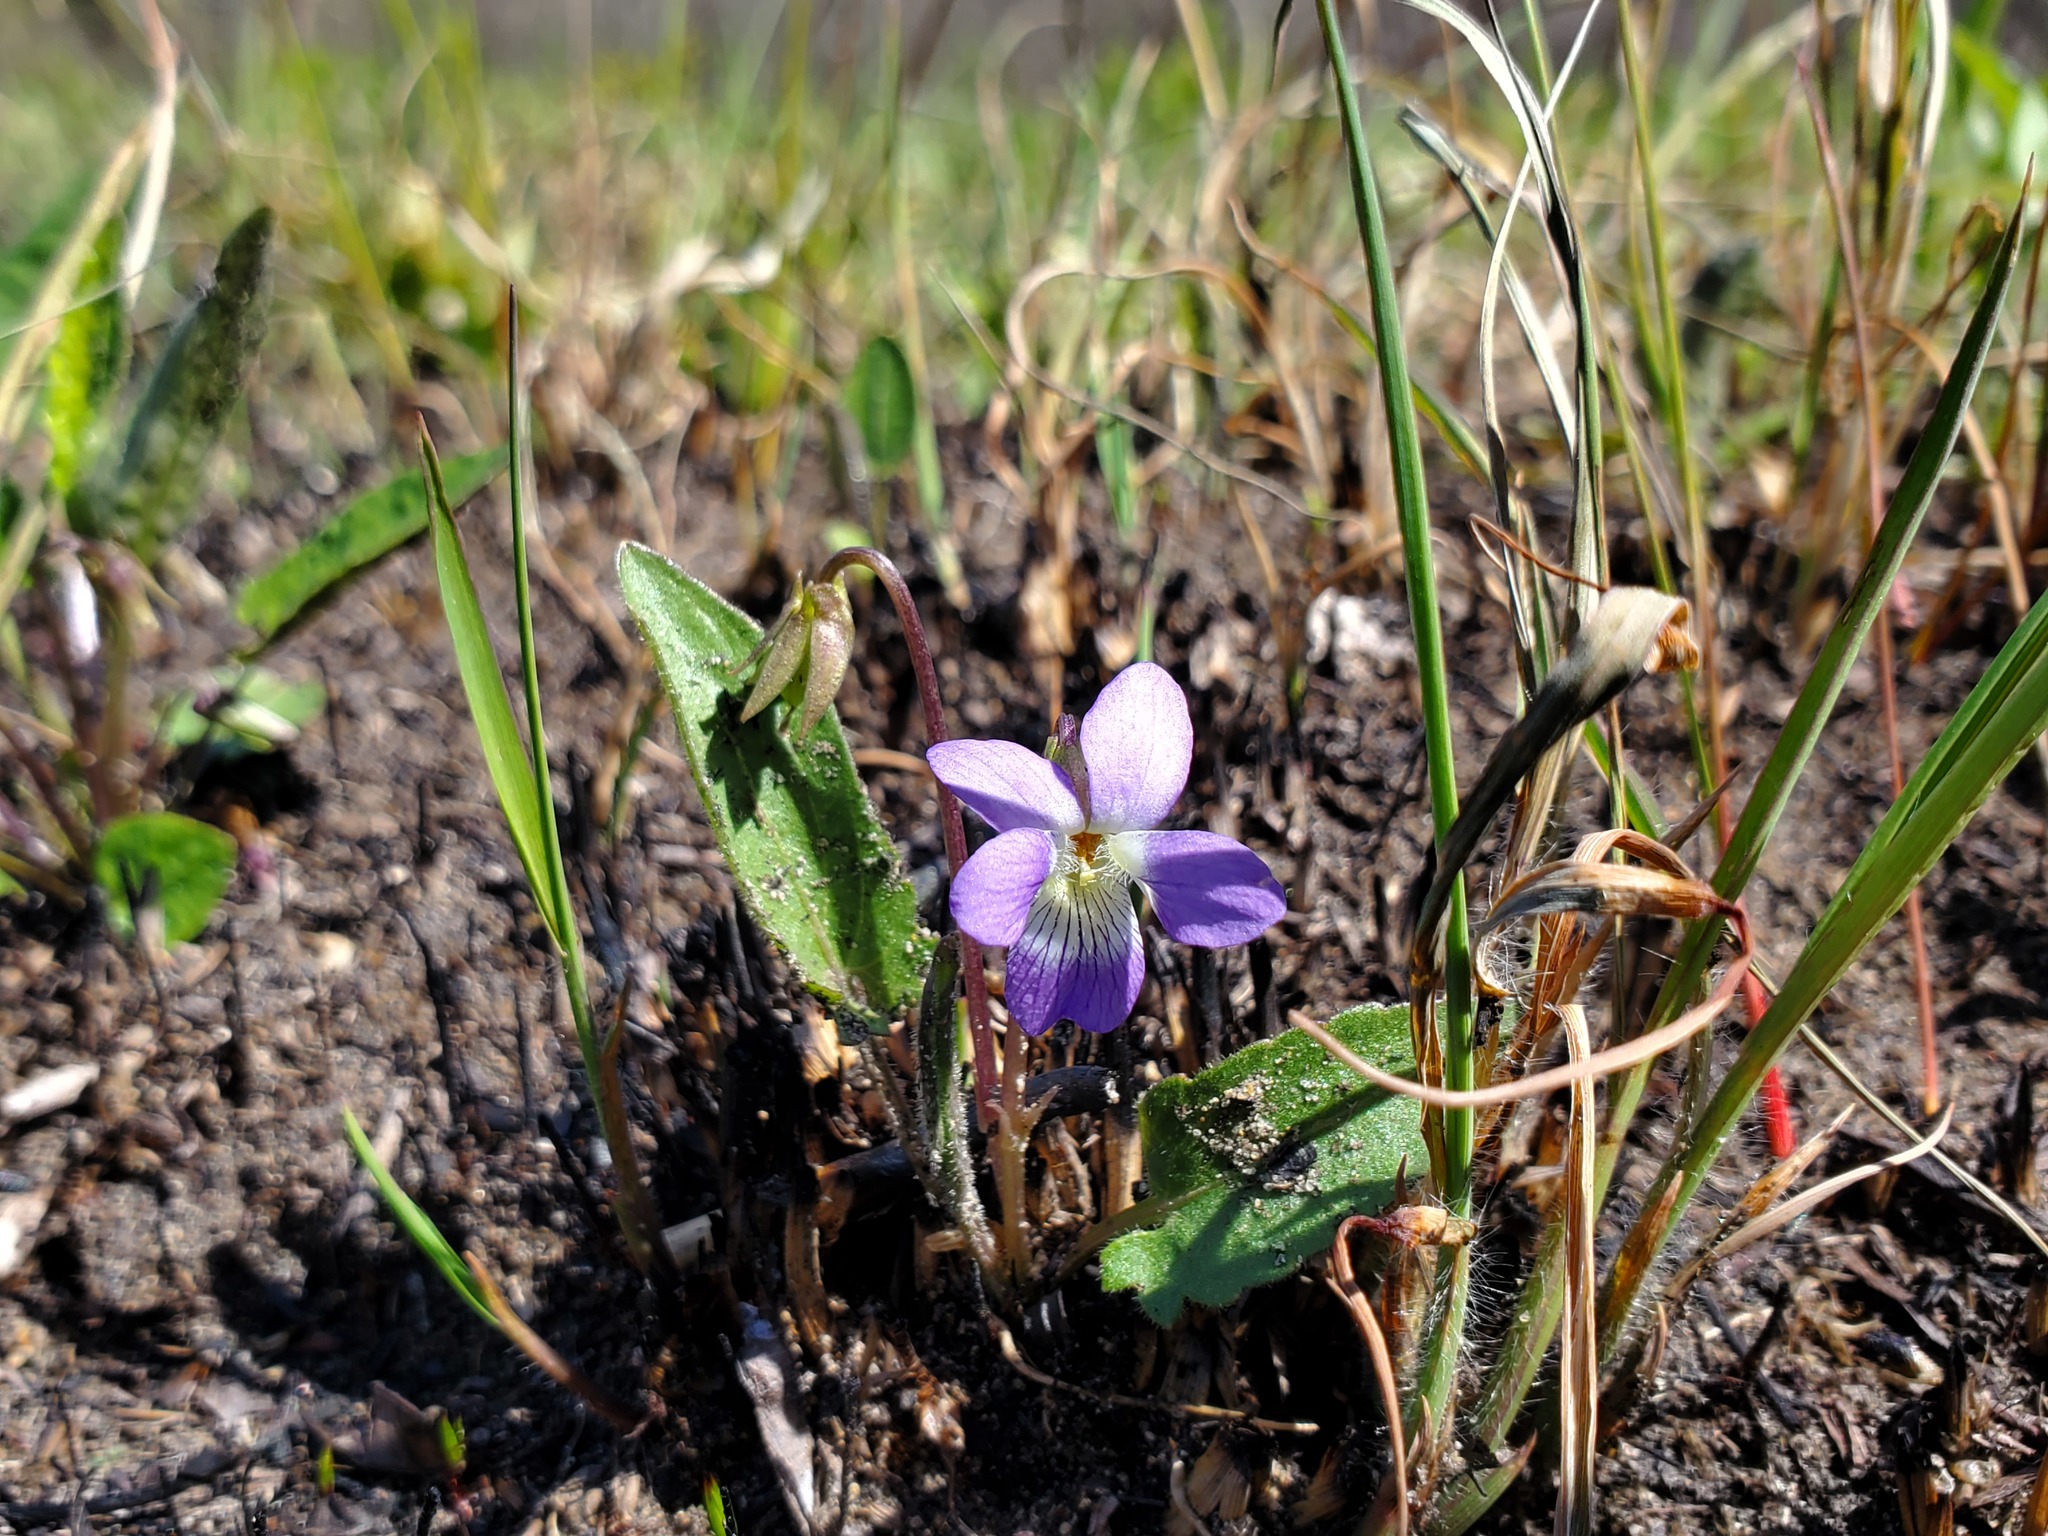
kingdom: Plantae
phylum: Tracheophyta
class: Magnoliopsida
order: Malpighiales
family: Violaceae
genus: Viola
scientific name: Viola sagittata
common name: Arrowhead violet
